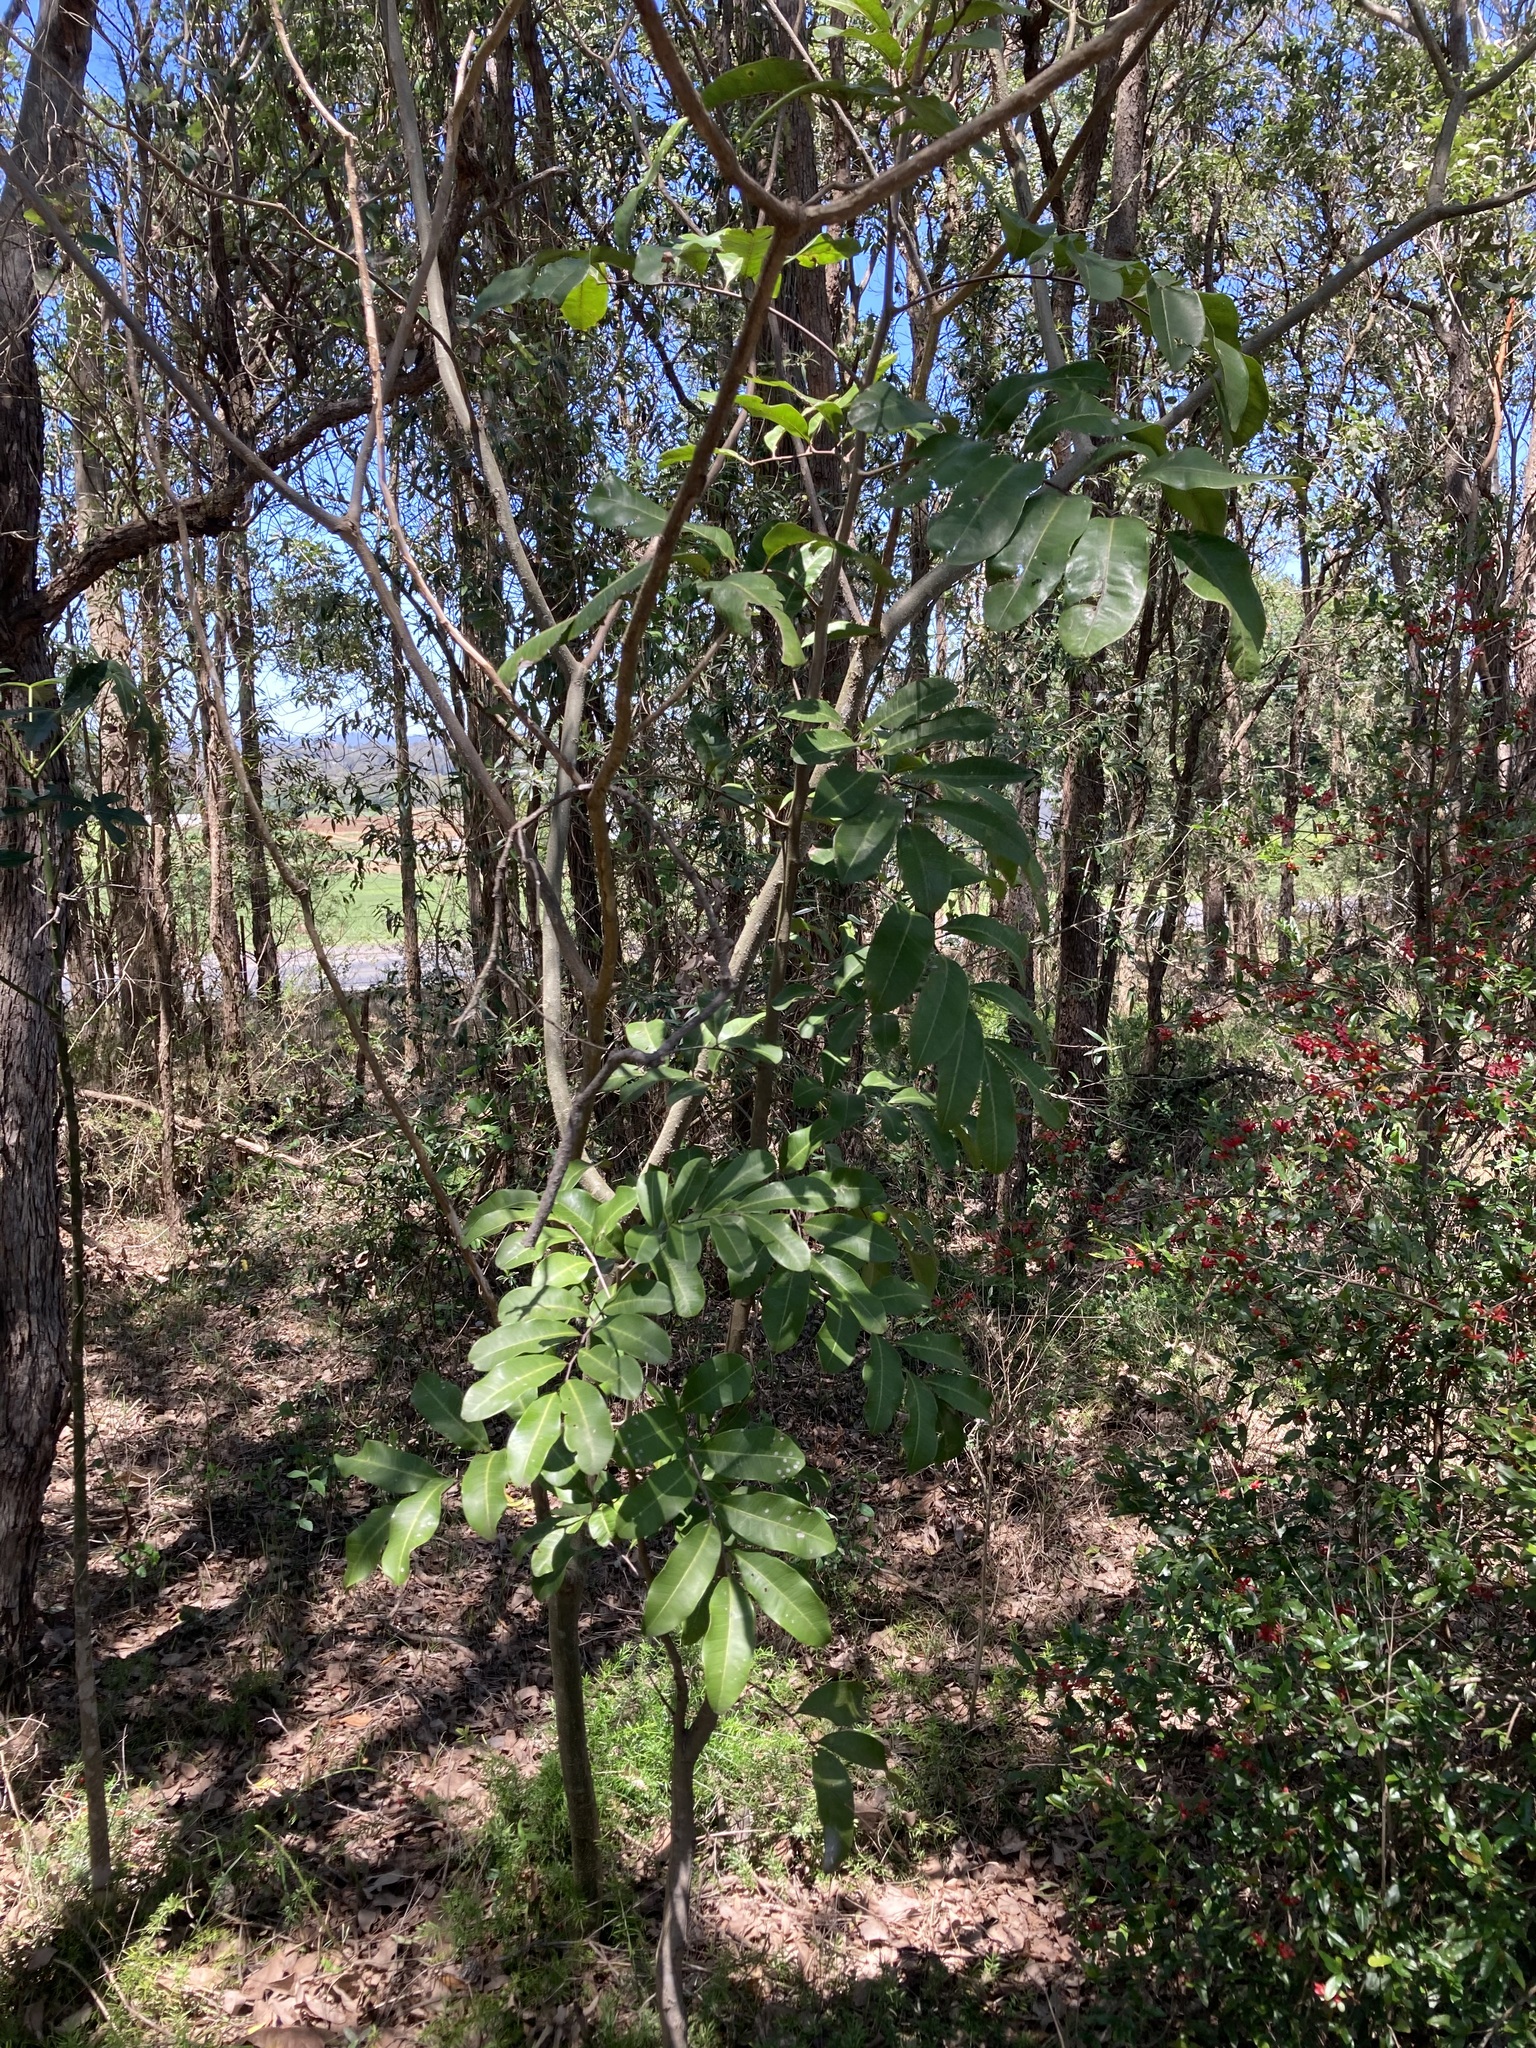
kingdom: Plantae
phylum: Tracheophyta
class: Magnoliopsida
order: Sapindales
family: Sapindaceae
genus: Cupaniopsis
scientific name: Cupaniopsis anacardioides
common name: Carrotwood
